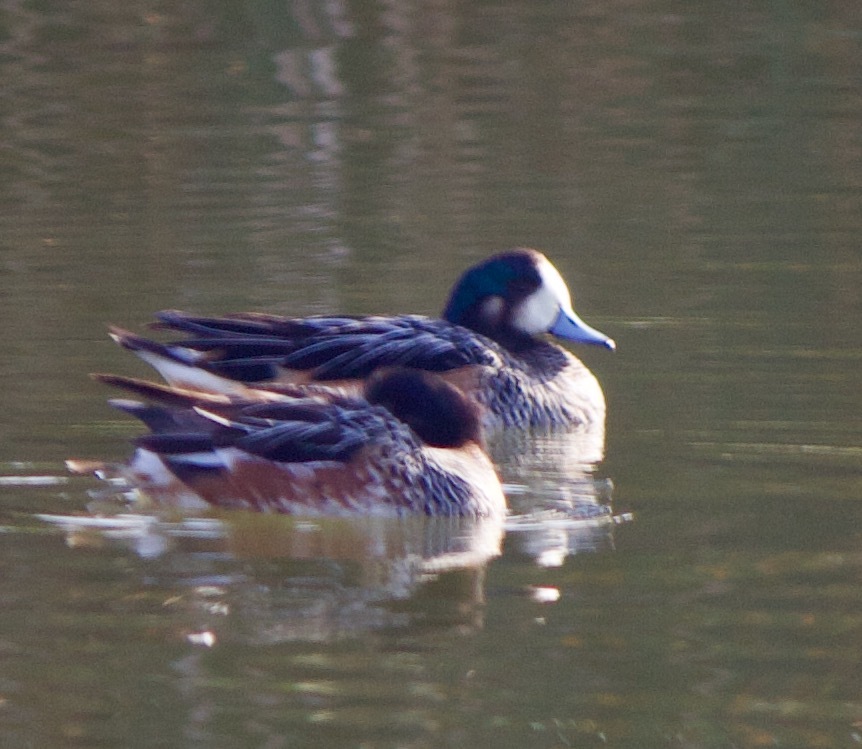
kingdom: Animalia
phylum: Chordata
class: Aves
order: Anseriformes
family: Anatidae
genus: Mareca
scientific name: Mareca sibilatrix
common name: Chiloe wigeon
